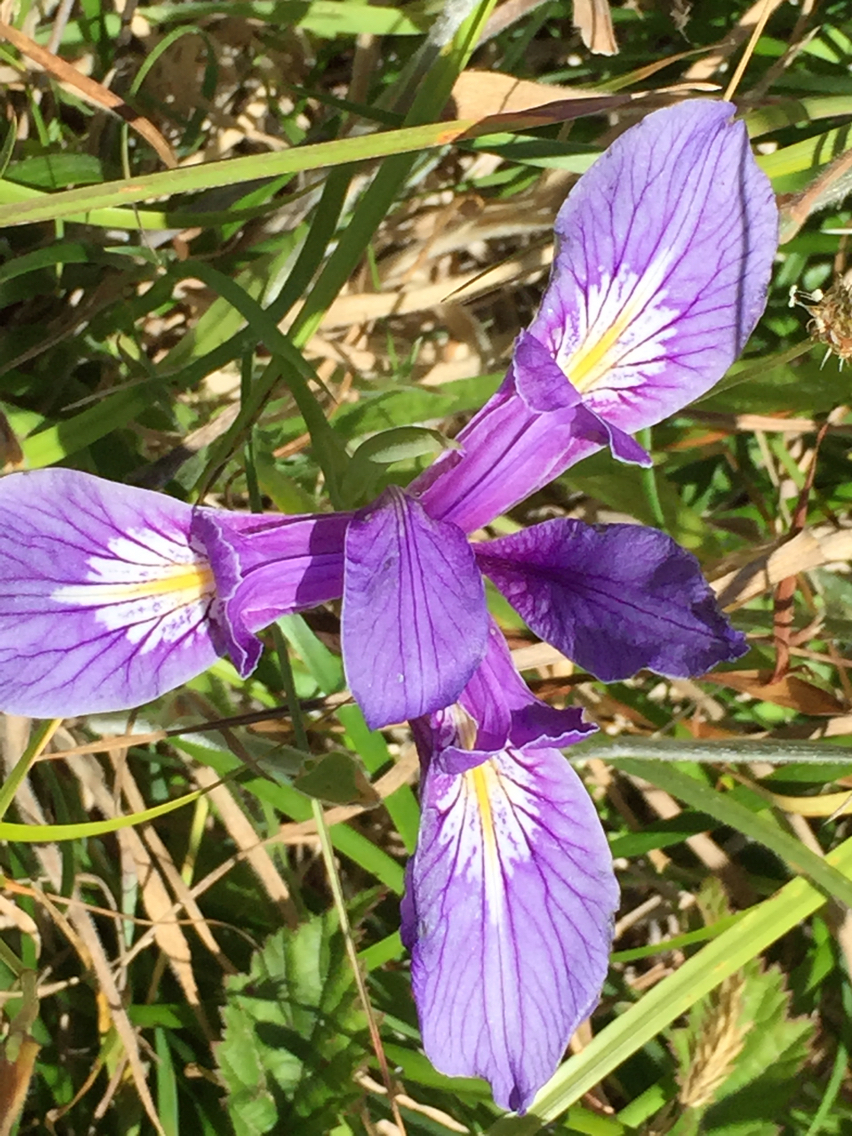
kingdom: Plantae
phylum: Tracheophyta
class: Liliopsida
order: Asparagales
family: Iridaceae
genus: Iris
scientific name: Iris tenax
